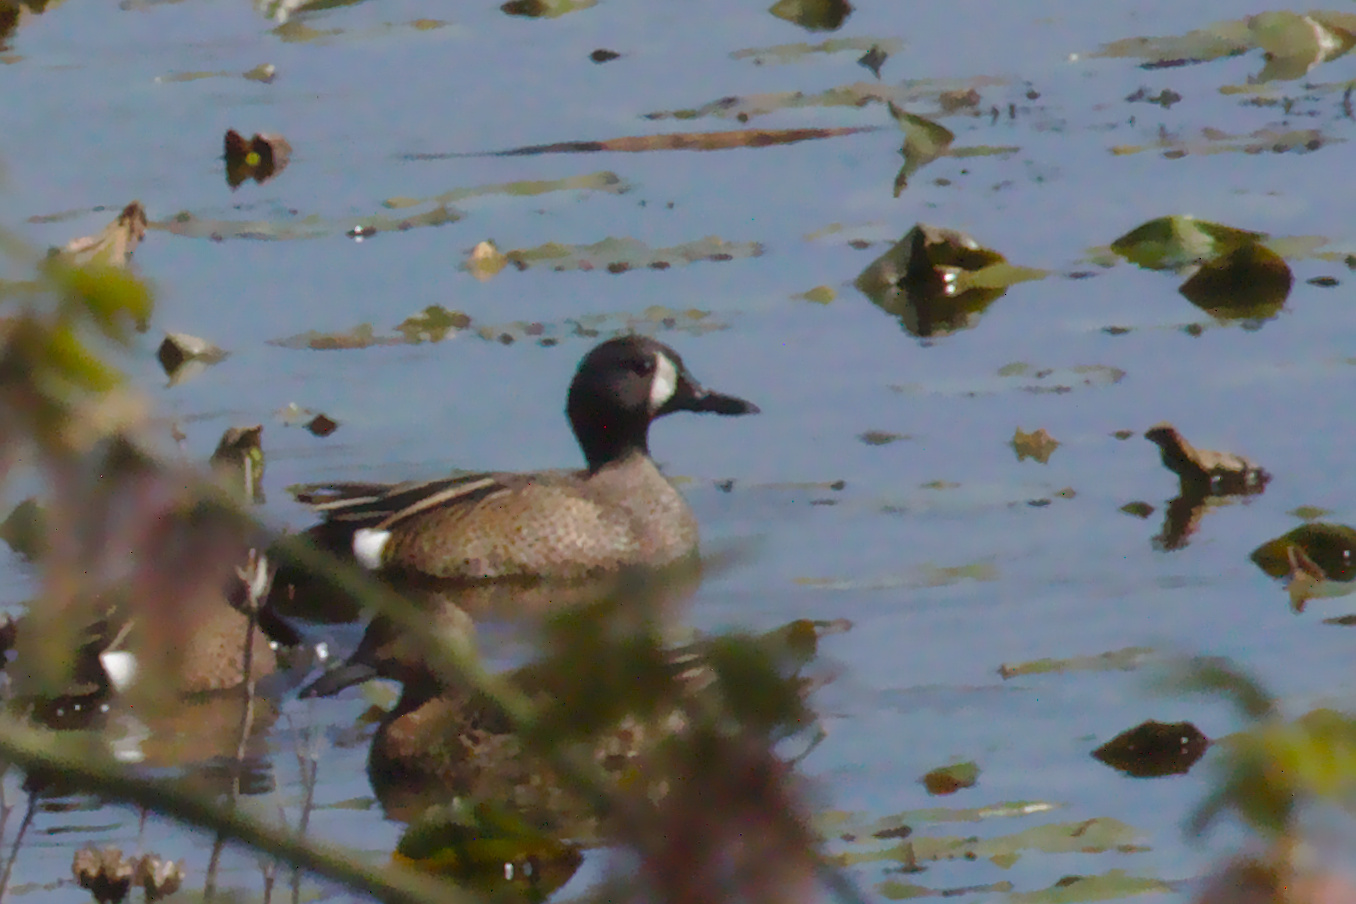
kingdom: Animalia
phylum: Chordata
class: Aves
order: Anseriformes
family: Anatidae
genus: Spatula
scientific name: Spatula discors
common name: Blue-winged teal
